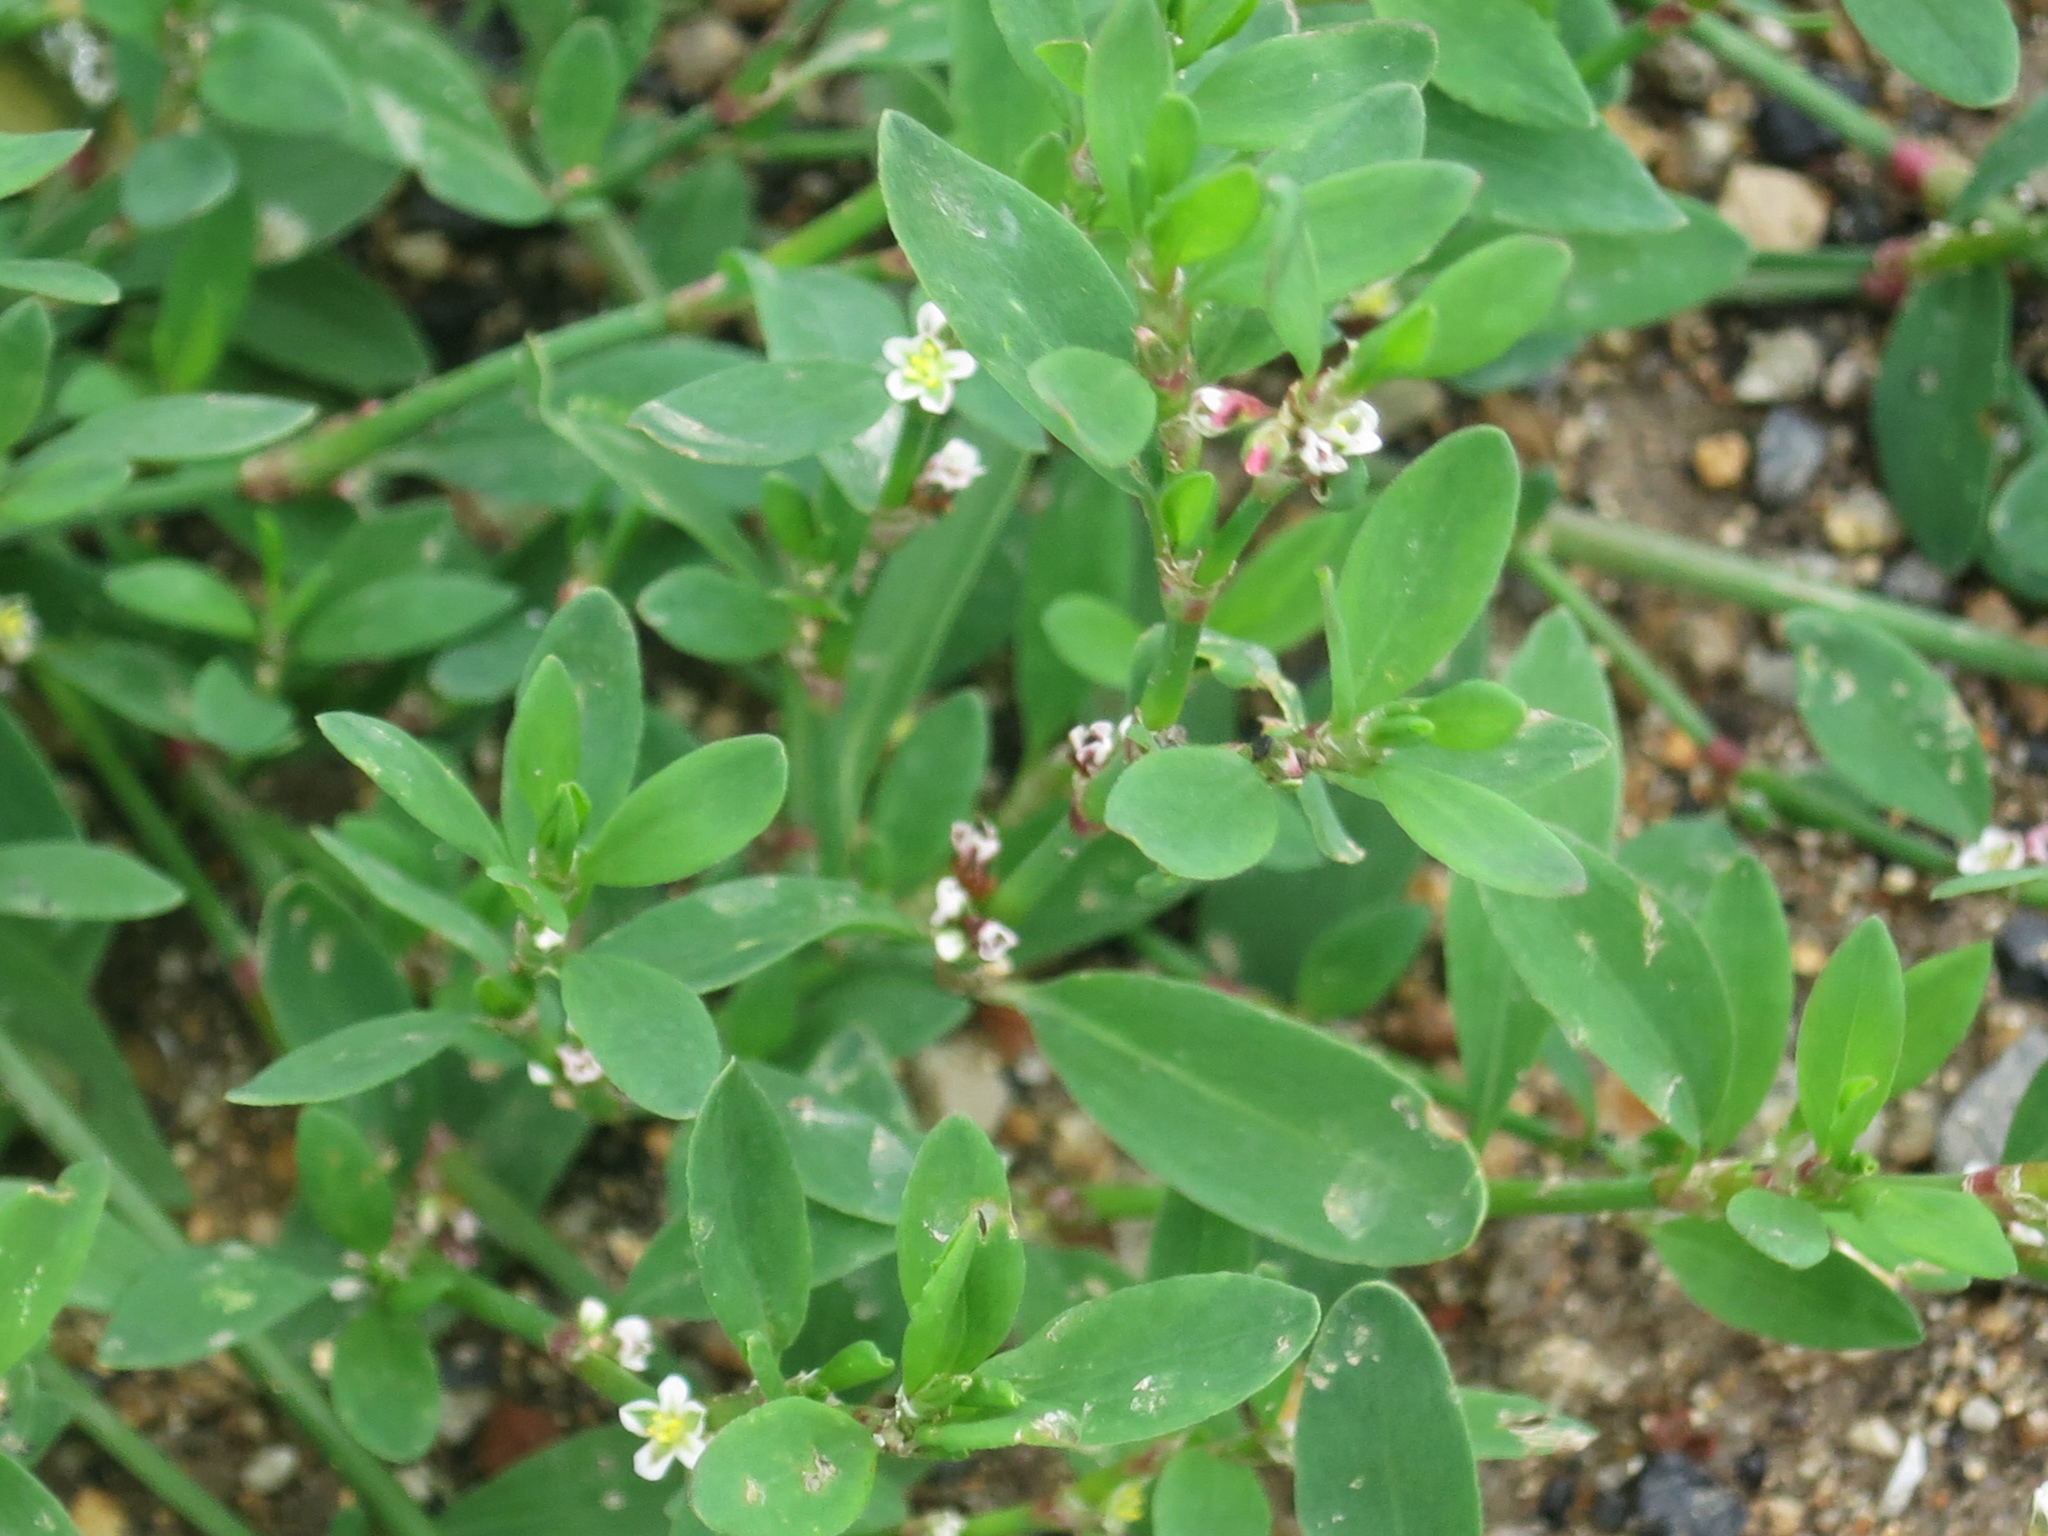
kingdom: Plantae
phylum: Tracheophyta
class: Magnoliopsida
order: Caryophyllales
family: Polygonaceae
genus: Polygonum
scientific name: Polygonum
